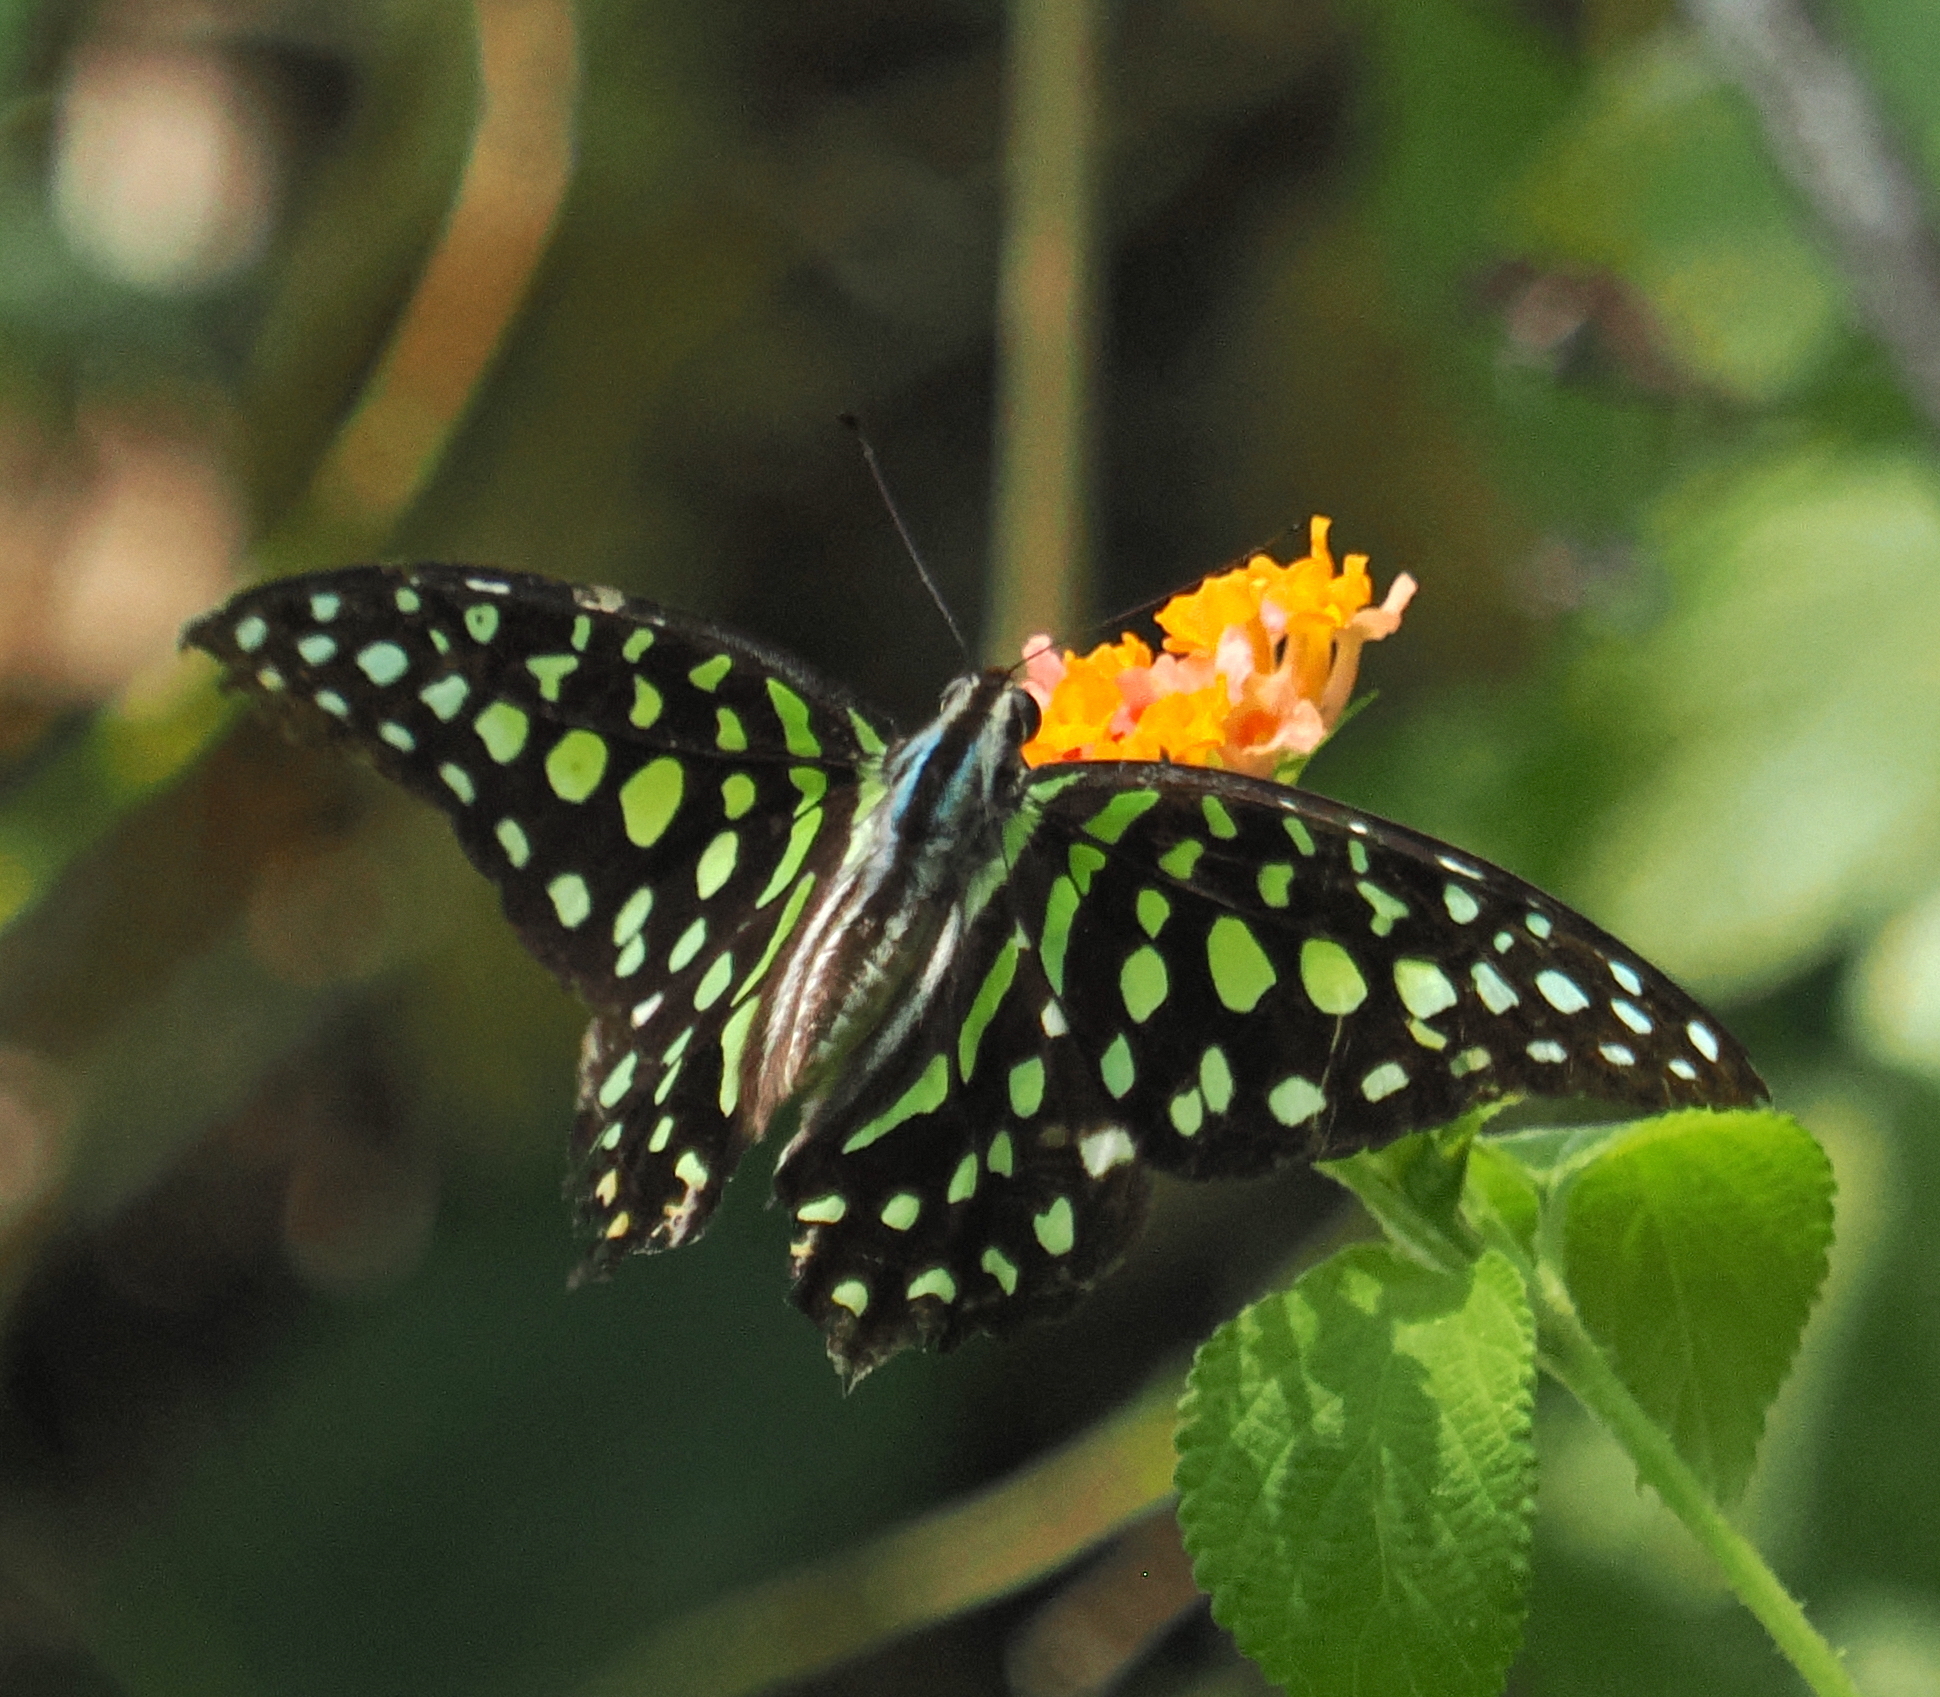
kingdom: Animalia
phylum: Arthropoda
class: Insecta
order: Lepidoptera
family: Papilionidae
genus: Graphium
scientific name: Graphium agamemnon
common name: Tailed jay
